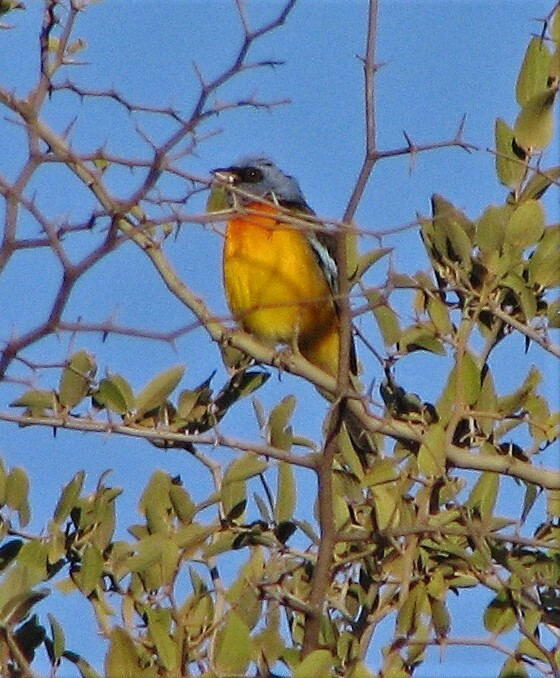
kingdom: Animalia
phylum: Chordata
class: Aves
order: Passeriformes
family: Thraupidae
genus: Rauenia
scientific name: Rauenia bonariensis
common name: Blue-and-yellow tanager
